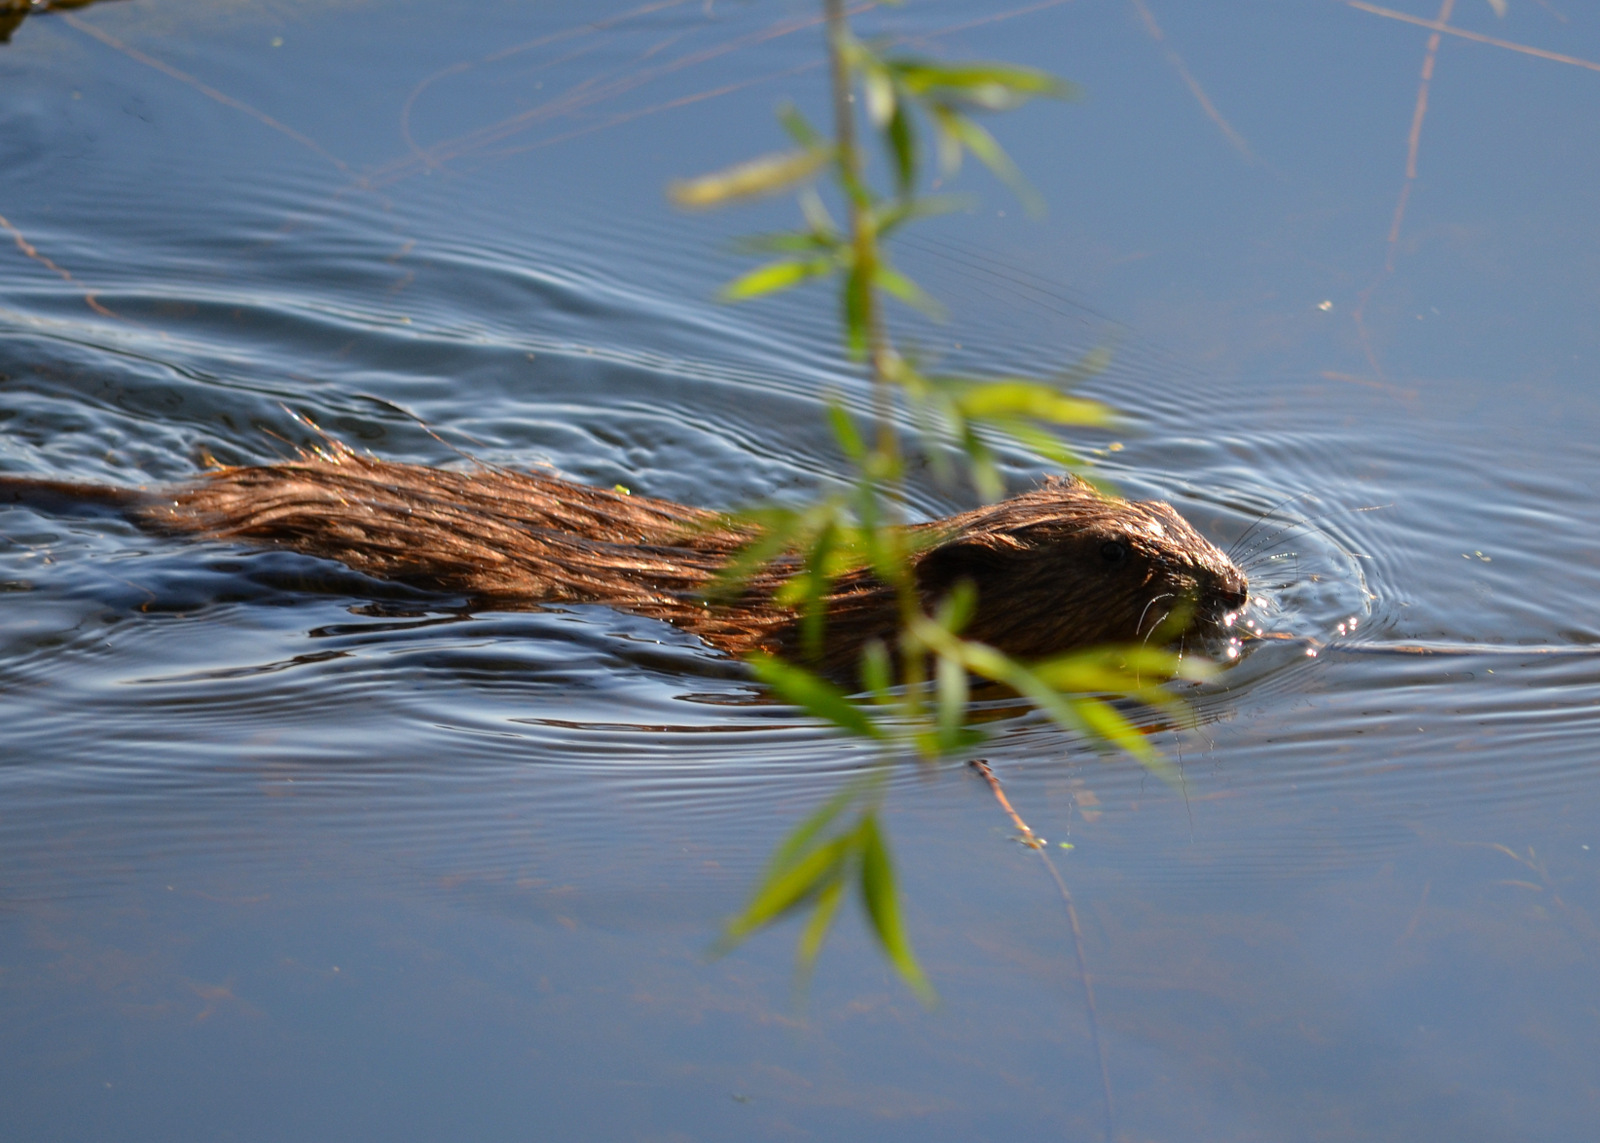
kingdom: Animalia
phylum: Chordata
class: Mammalia
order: Rodentia
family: Cricetidae
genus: Ondatra
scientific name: Ondatra zibethicus
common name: Muskrat
